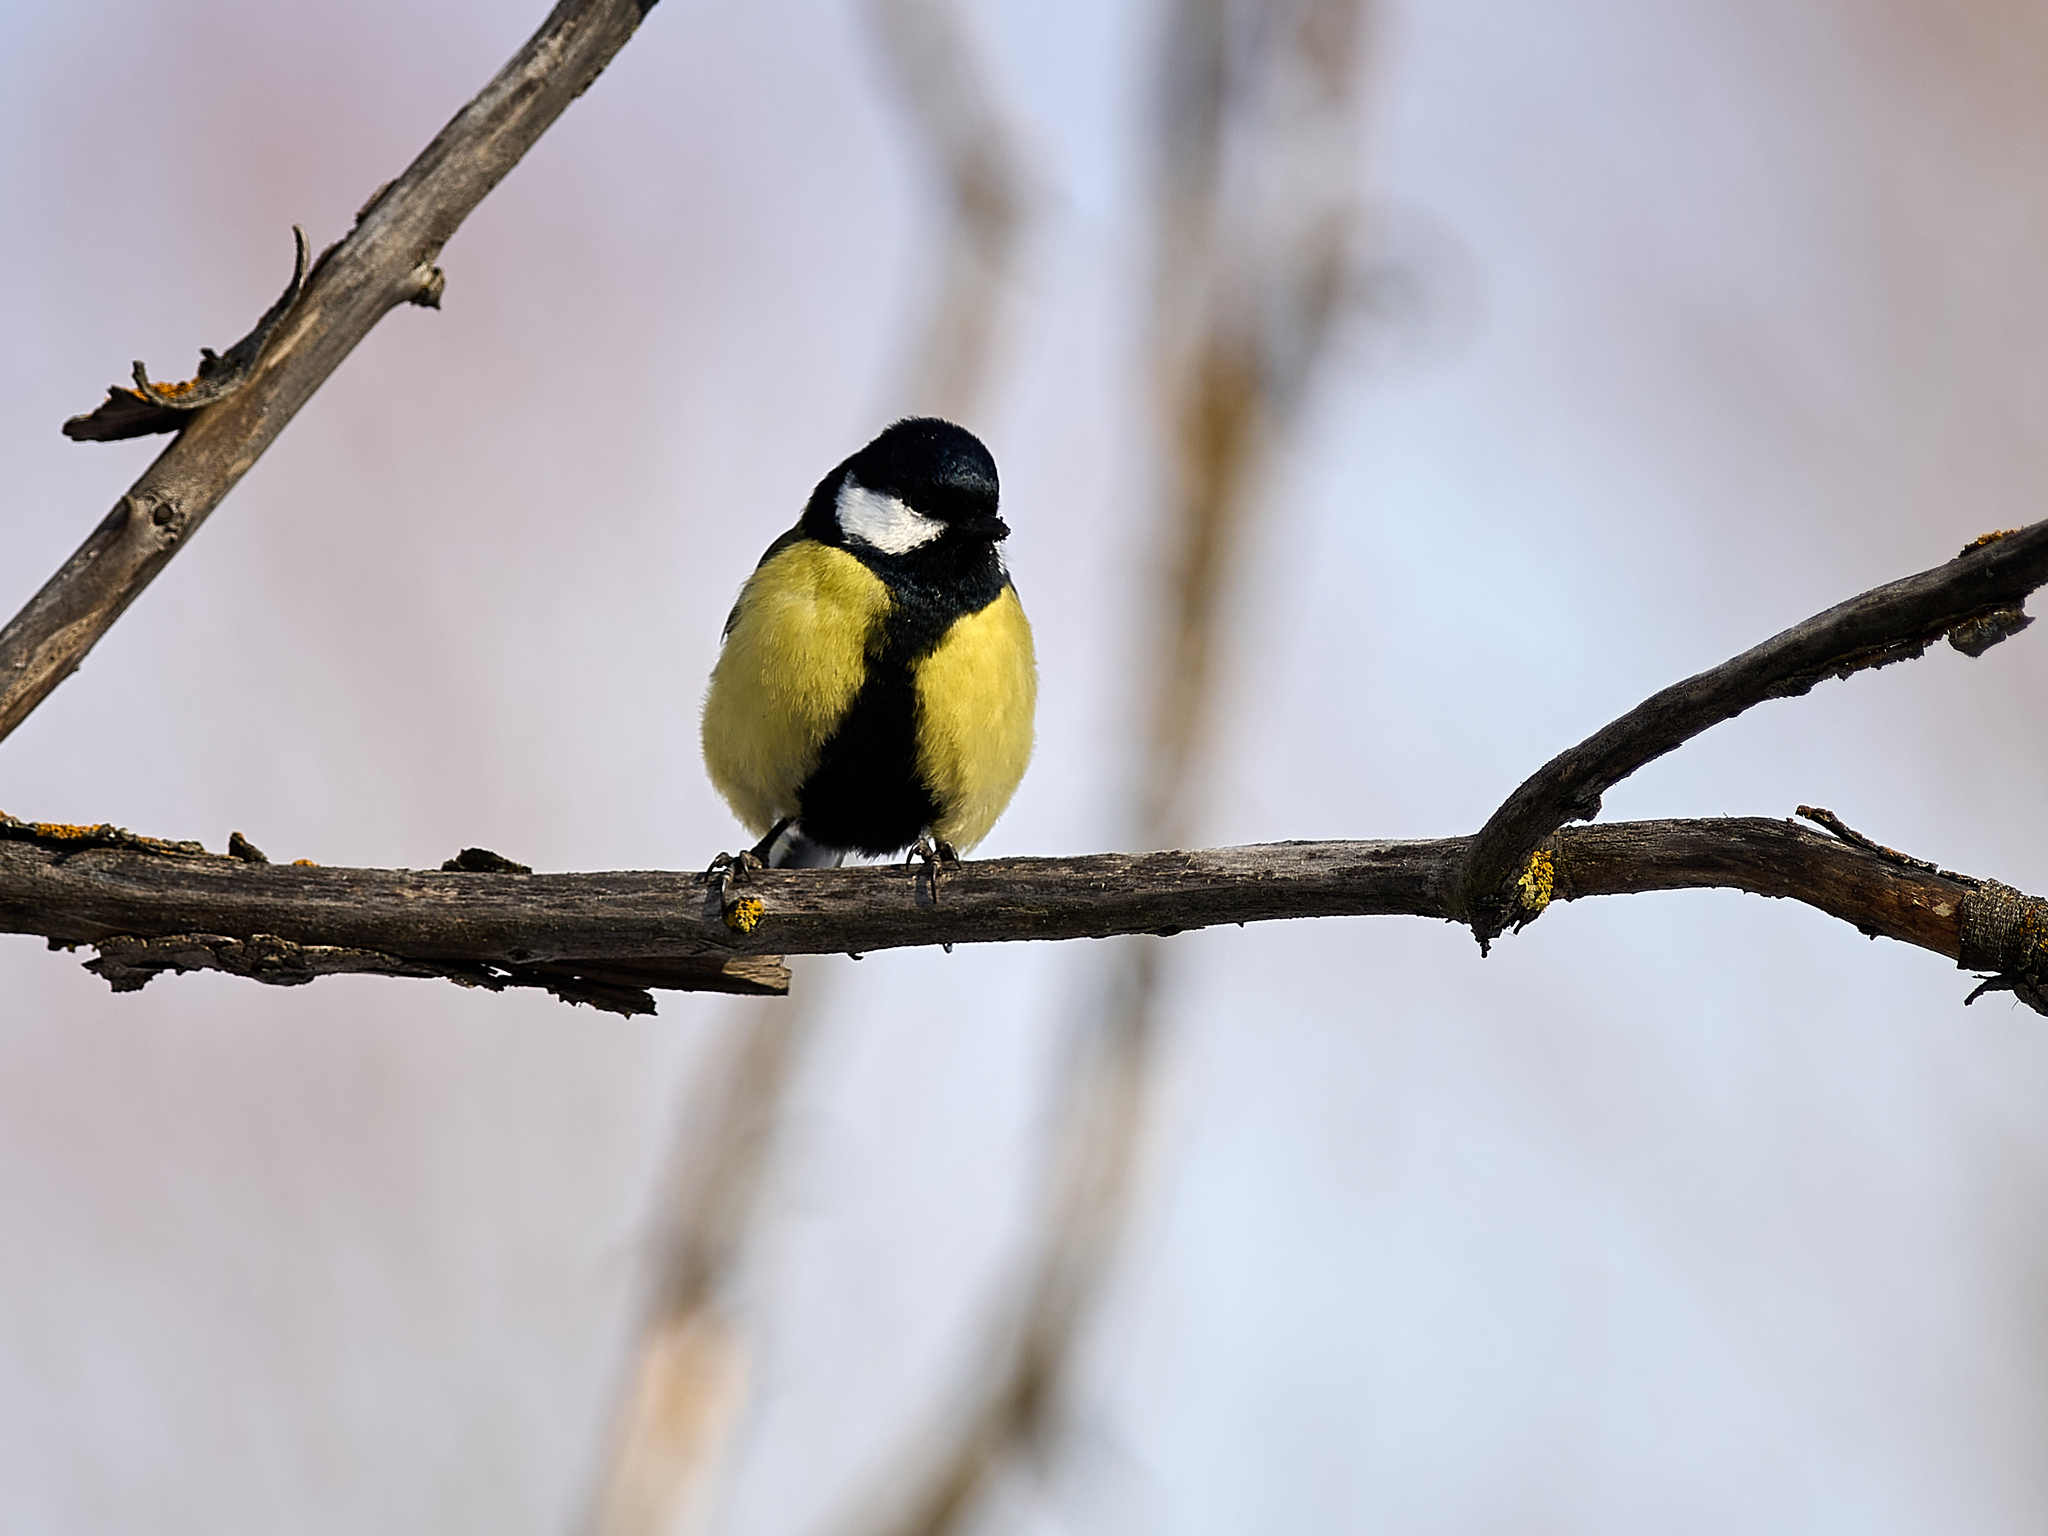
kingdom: Animalia
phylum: Chordata
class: Aves
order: Passeriformes
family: Paridae
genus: Parus
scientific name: Parus major
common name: Great tit
